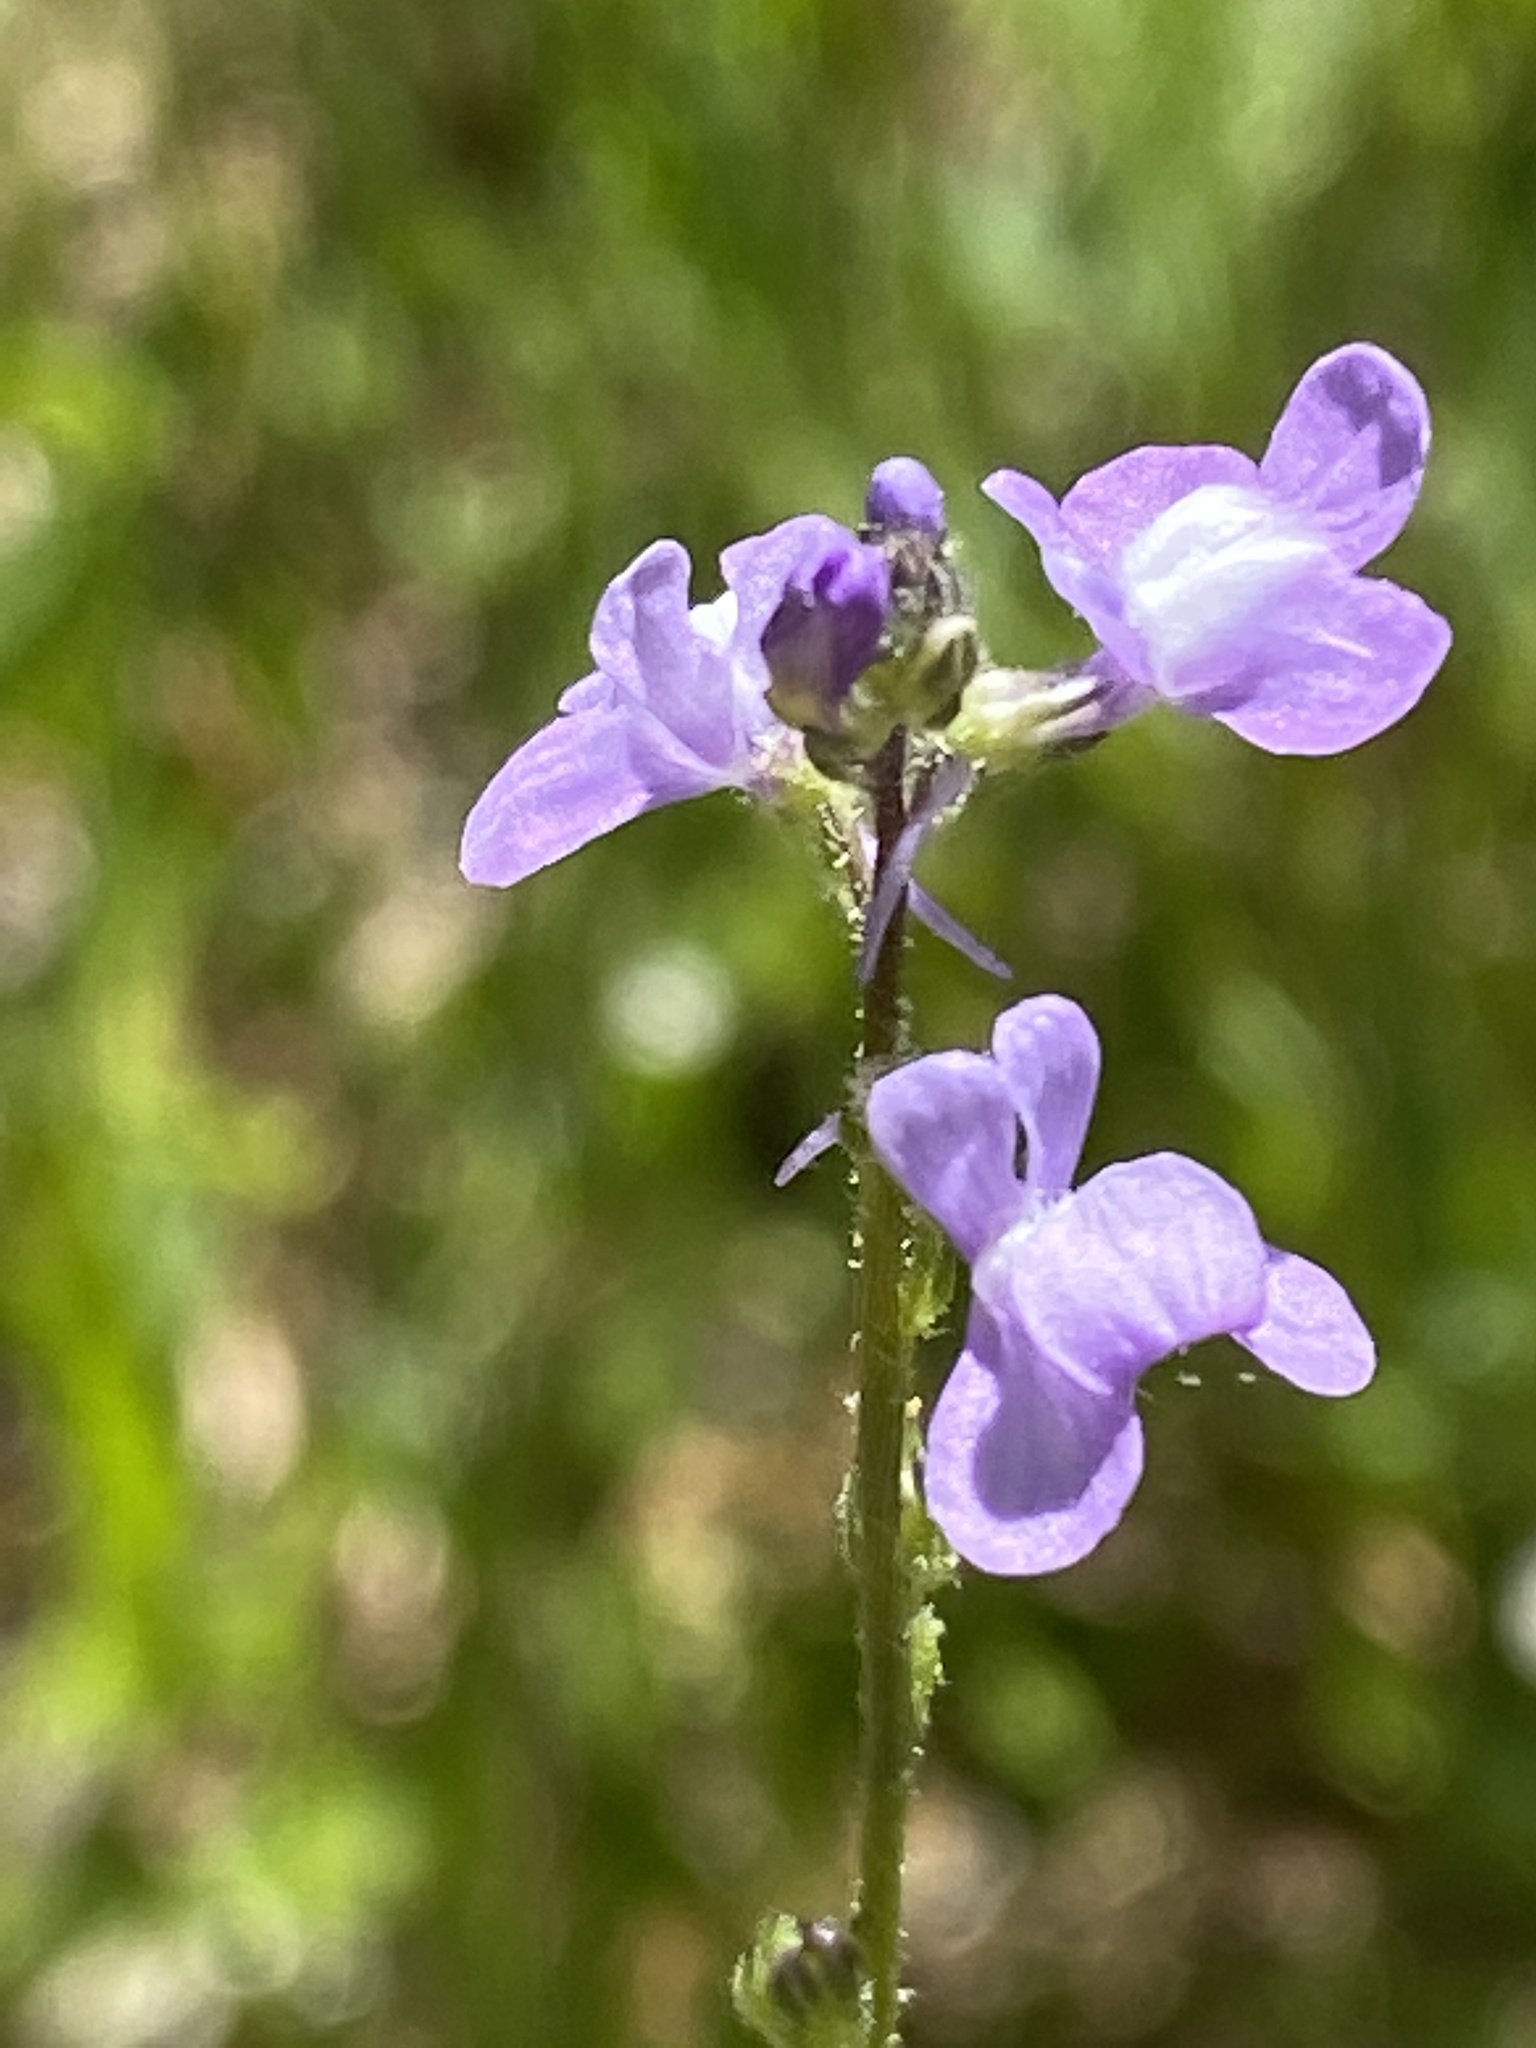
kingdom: Plantae
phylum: Tracheophyta
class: Magnoliopsida
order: Lamiales
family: Plantaginaceae
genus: Nuttallanthus
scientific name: Nuttallanthus canadensis
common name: Blue toadflax
